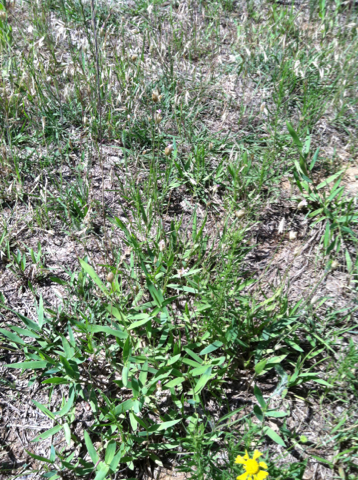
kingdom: Plantae
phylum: Tracheophyta
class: Magnoliopsida
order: Caryophyllales
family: Caryophyllaceae
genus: Petrorhagia
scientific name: Petrorhagia dubia
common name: Hairypink
